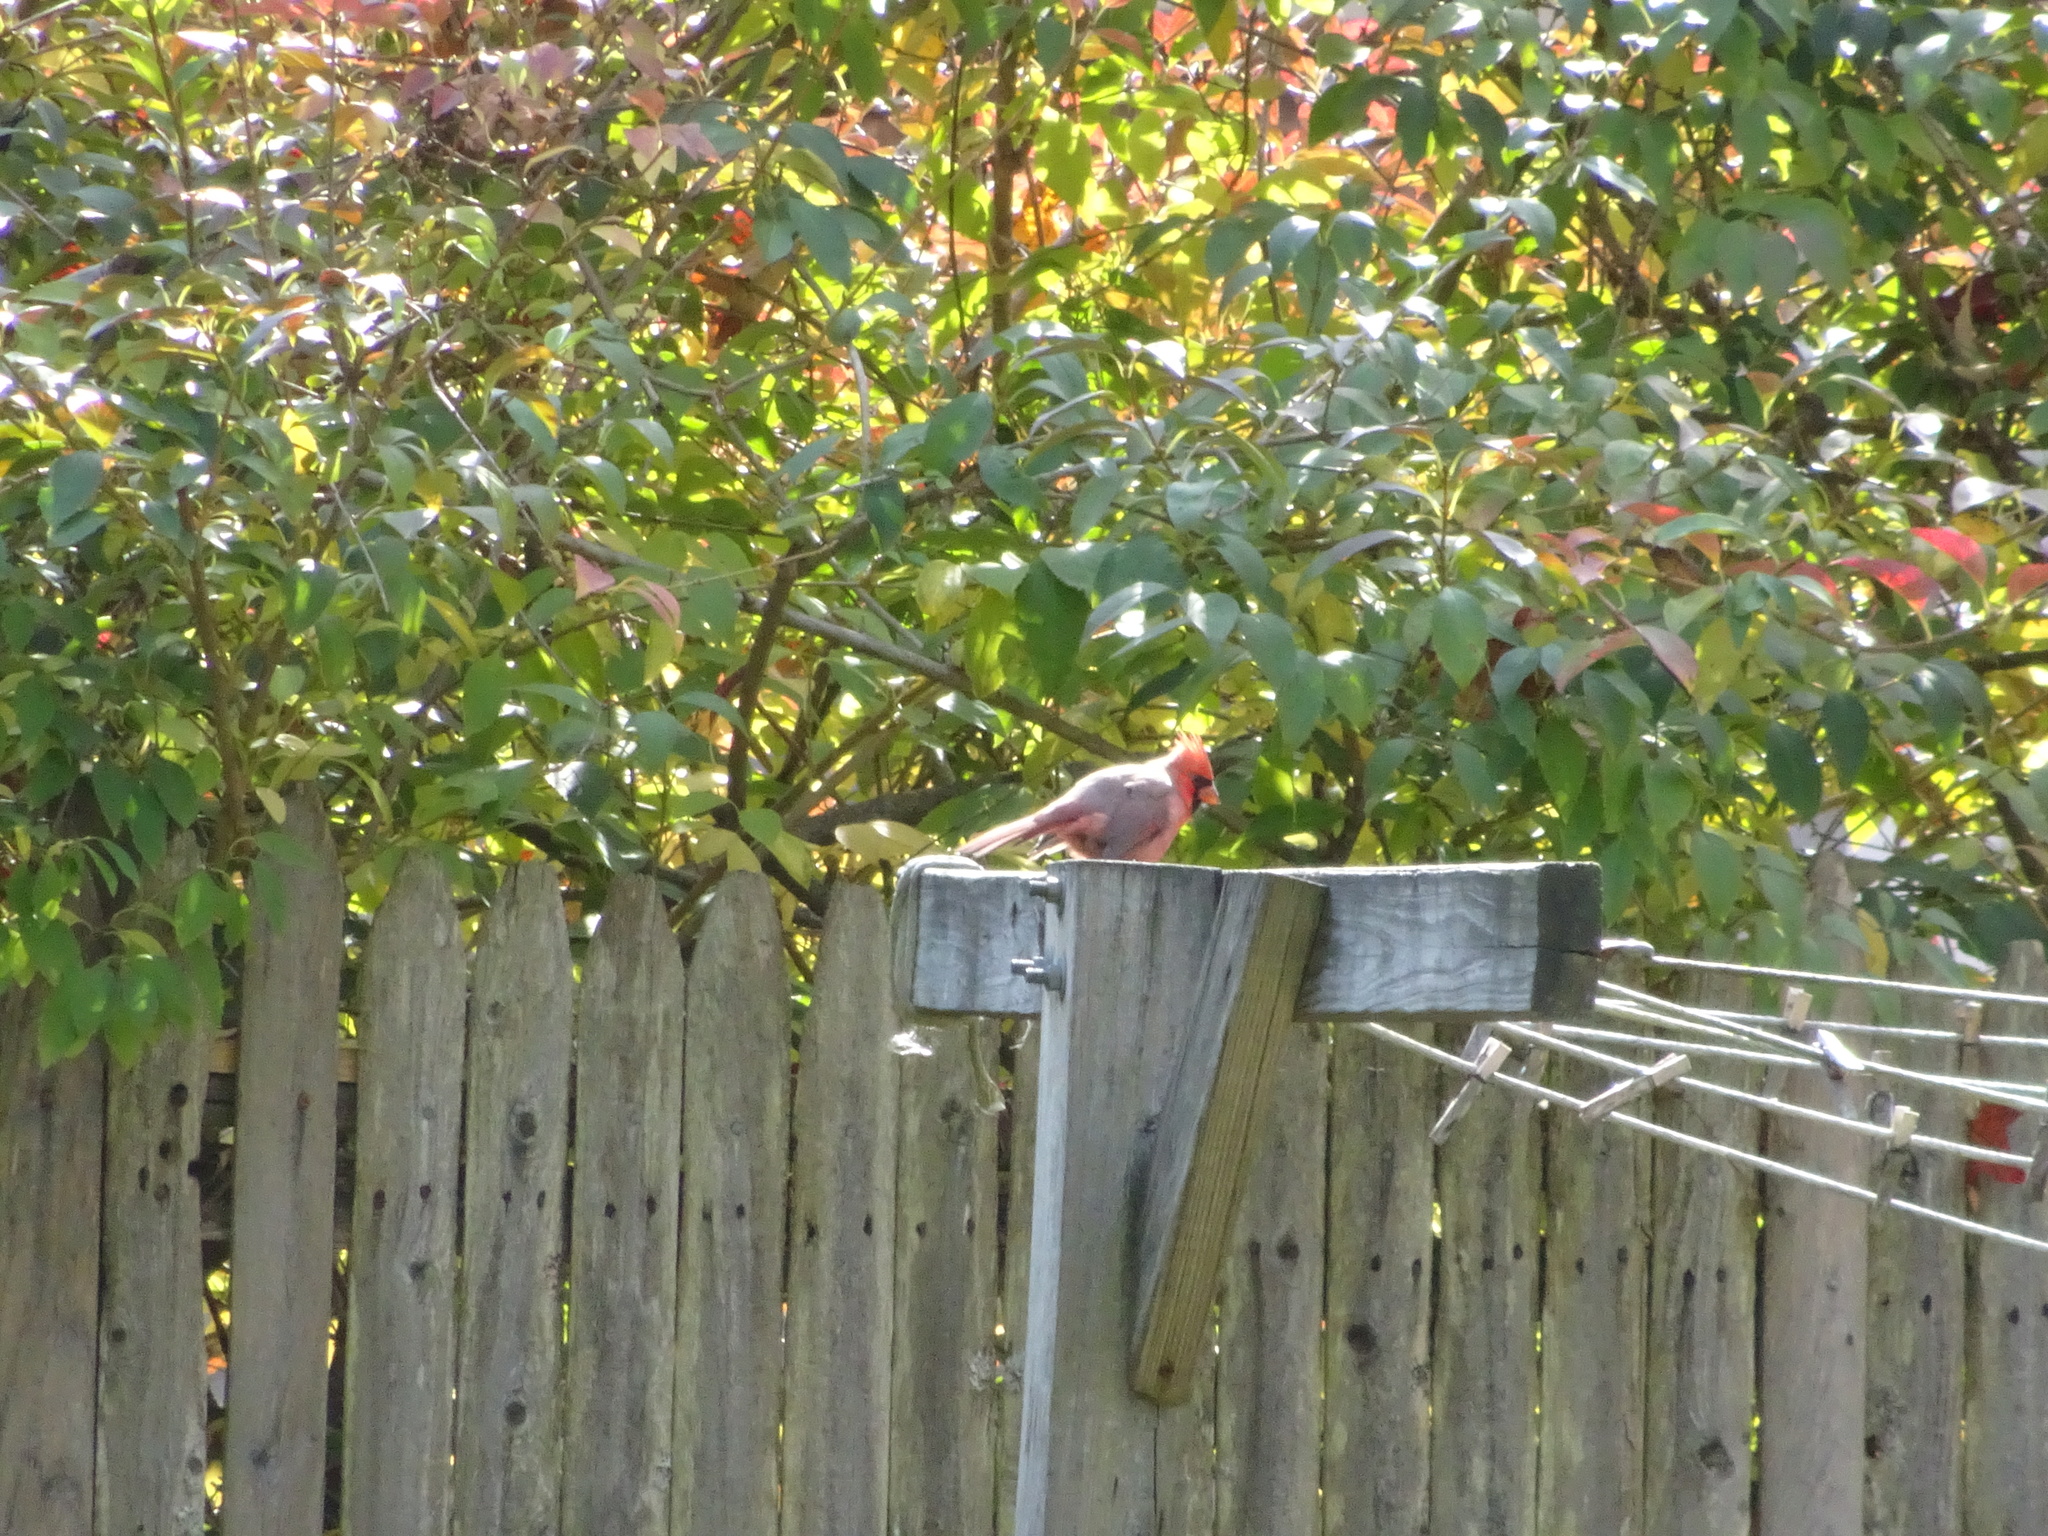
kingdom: Animalia
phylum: Chordata
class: Aves
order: Passeriformes
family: Cardinalidae
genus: Cardinalis
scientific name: Cardinalis cardinalis
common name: Northern cardinal
